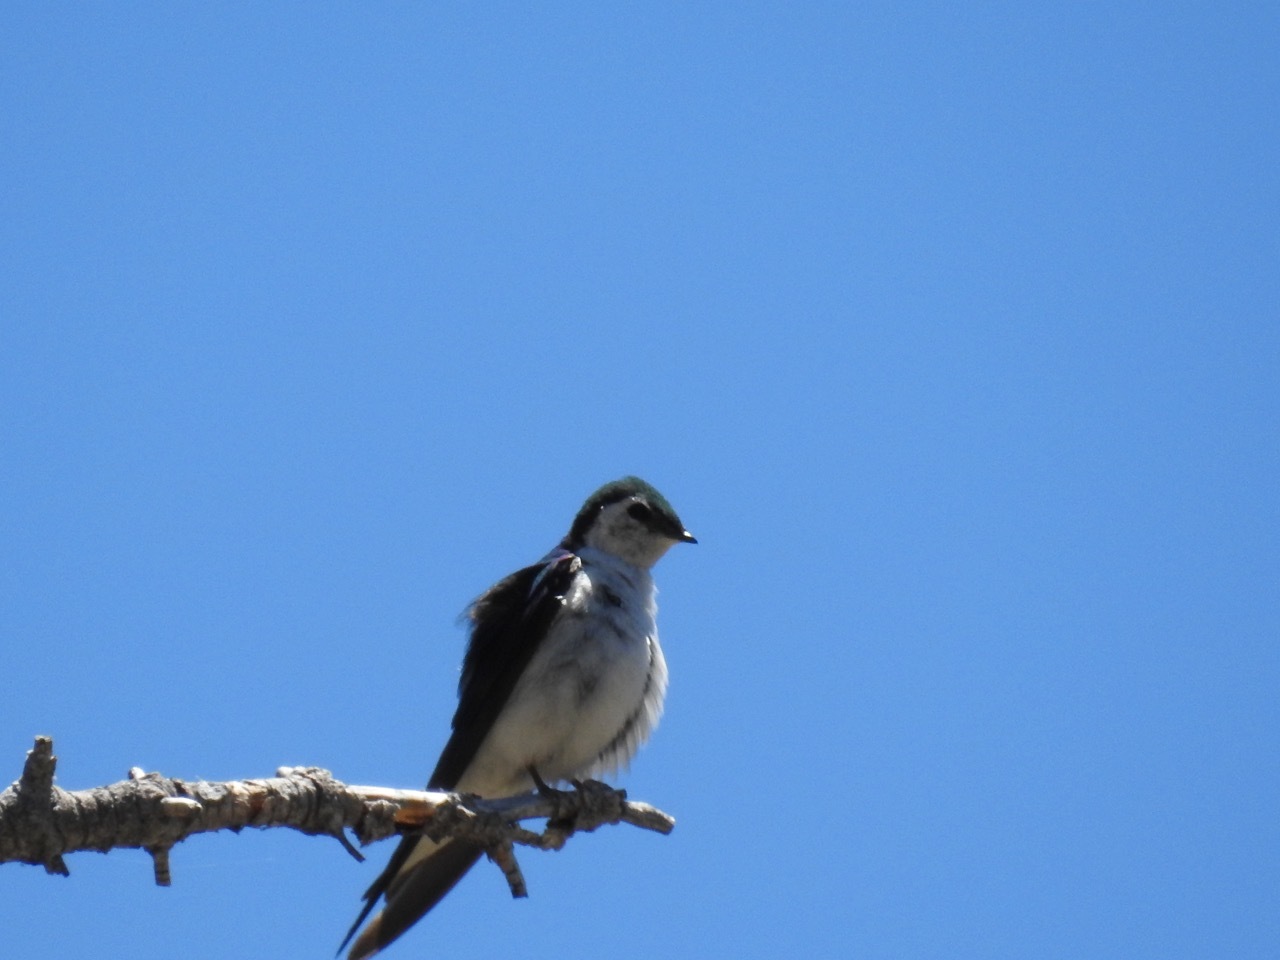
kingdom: Animalia
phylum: Chordata
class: Aves
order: Passeriformes
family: Hirundinidae
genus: Tachycineta
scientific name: Tachycineta thalassina
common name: Violet-green swallow
